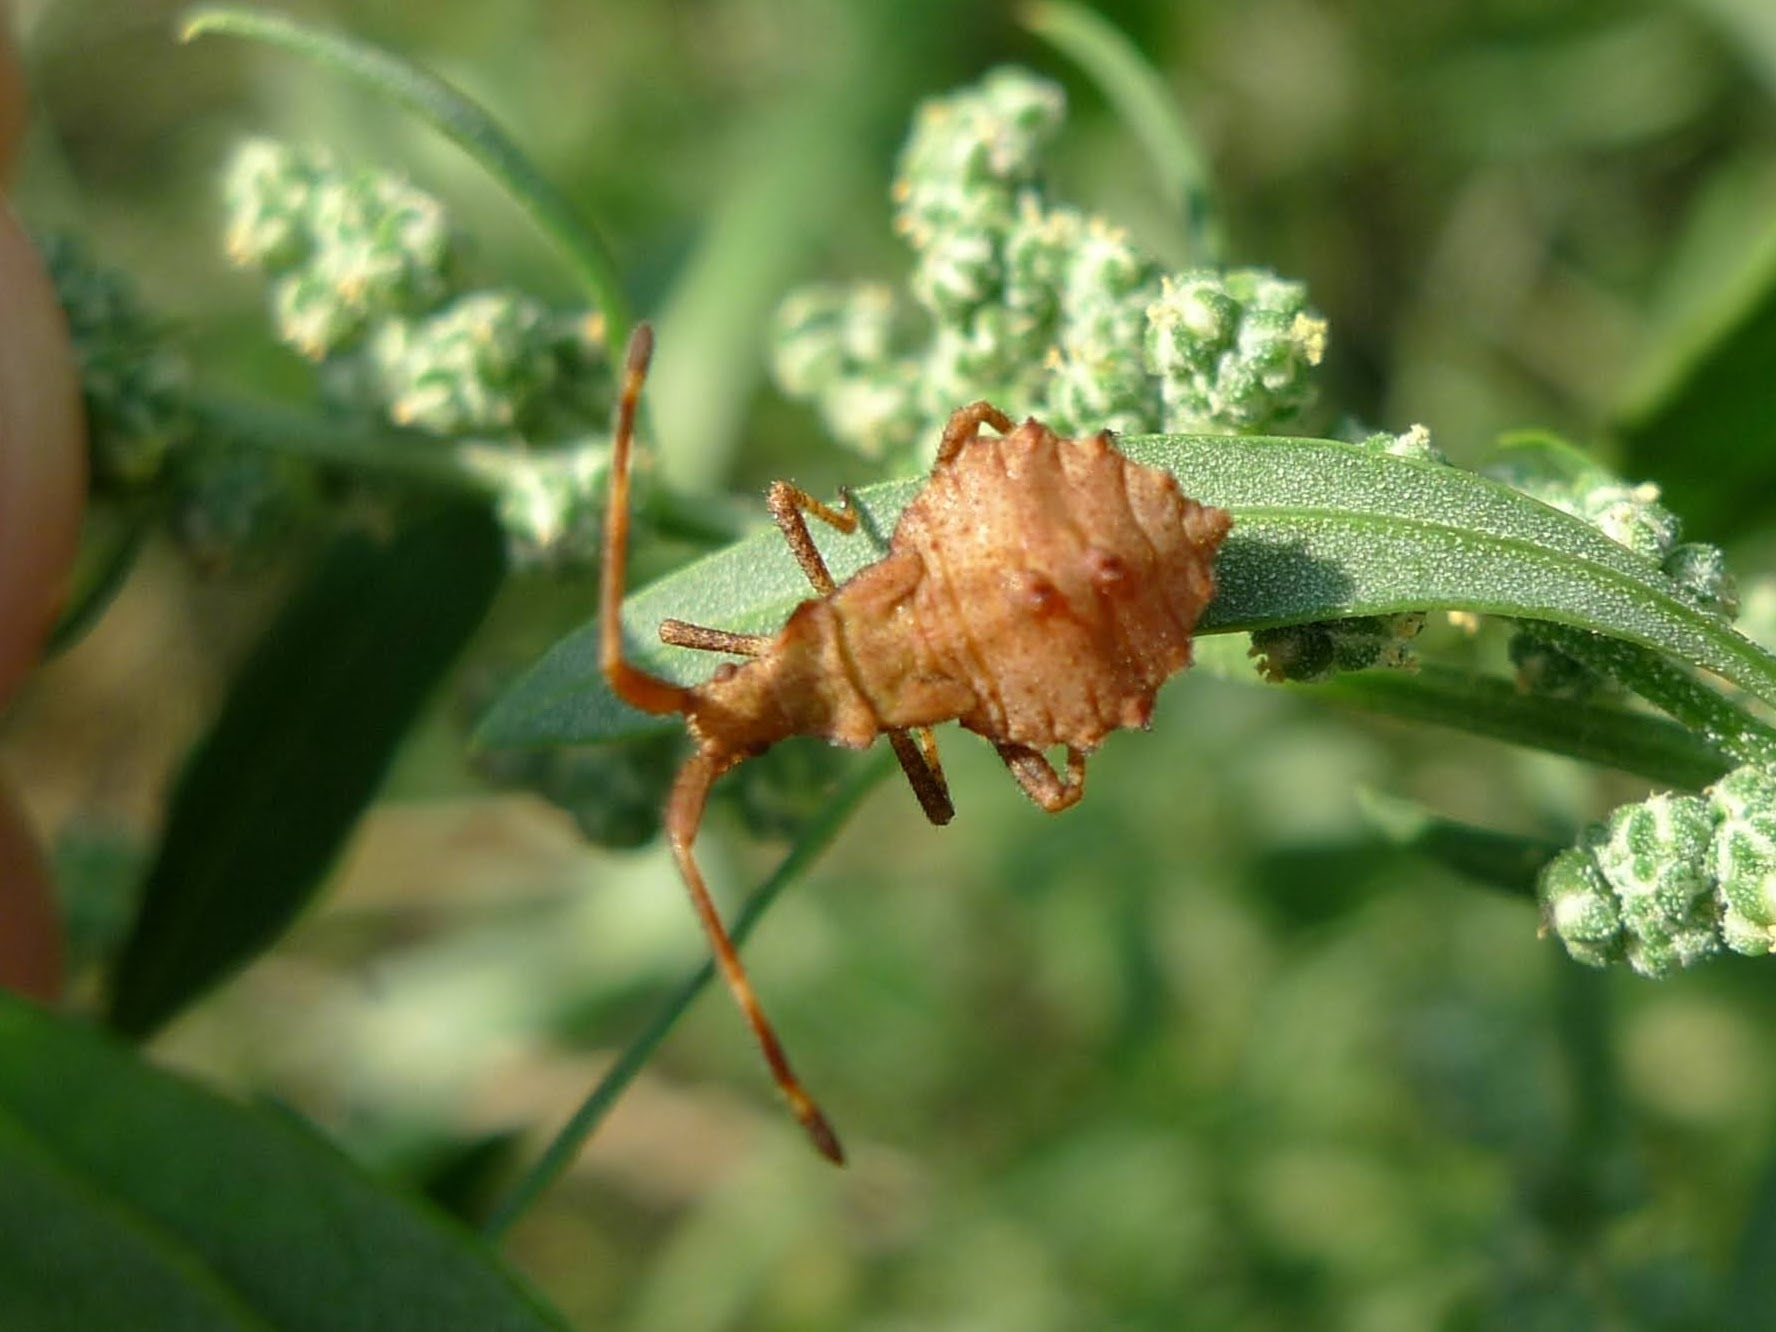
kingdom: Animalia
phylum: Arthropoda
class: Insecta
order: Hemiptera
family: Coreidae
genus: Coreus
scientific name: Coreus marginatus
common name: Dock bug
